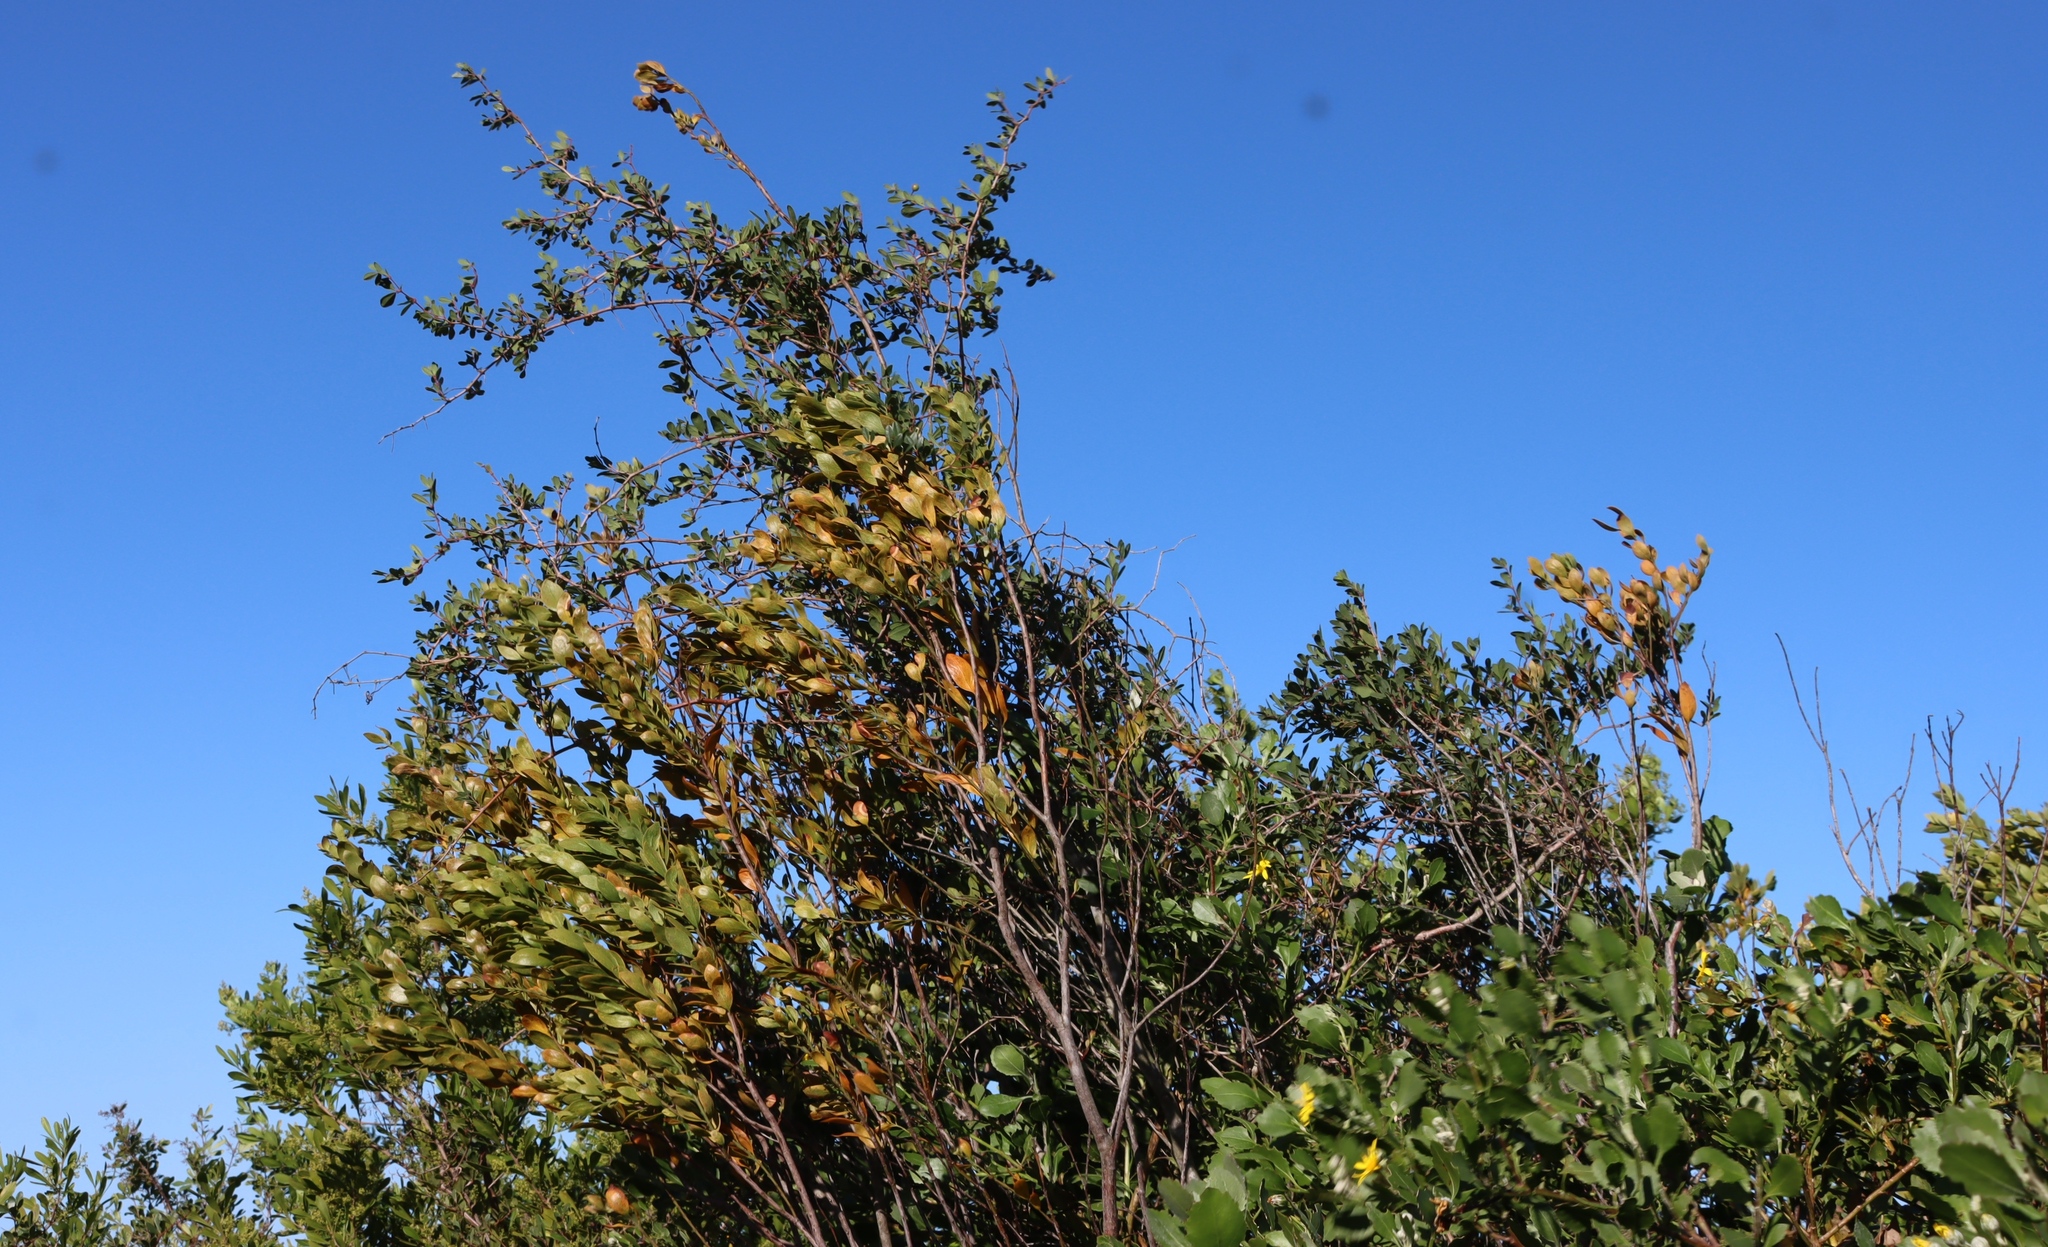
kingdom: Plantae
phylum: Tracheophyta
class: Magnoliopsida
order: Vitales
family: Vitaceae
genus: Rhoicissus
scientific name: Rhoicissus digitata
